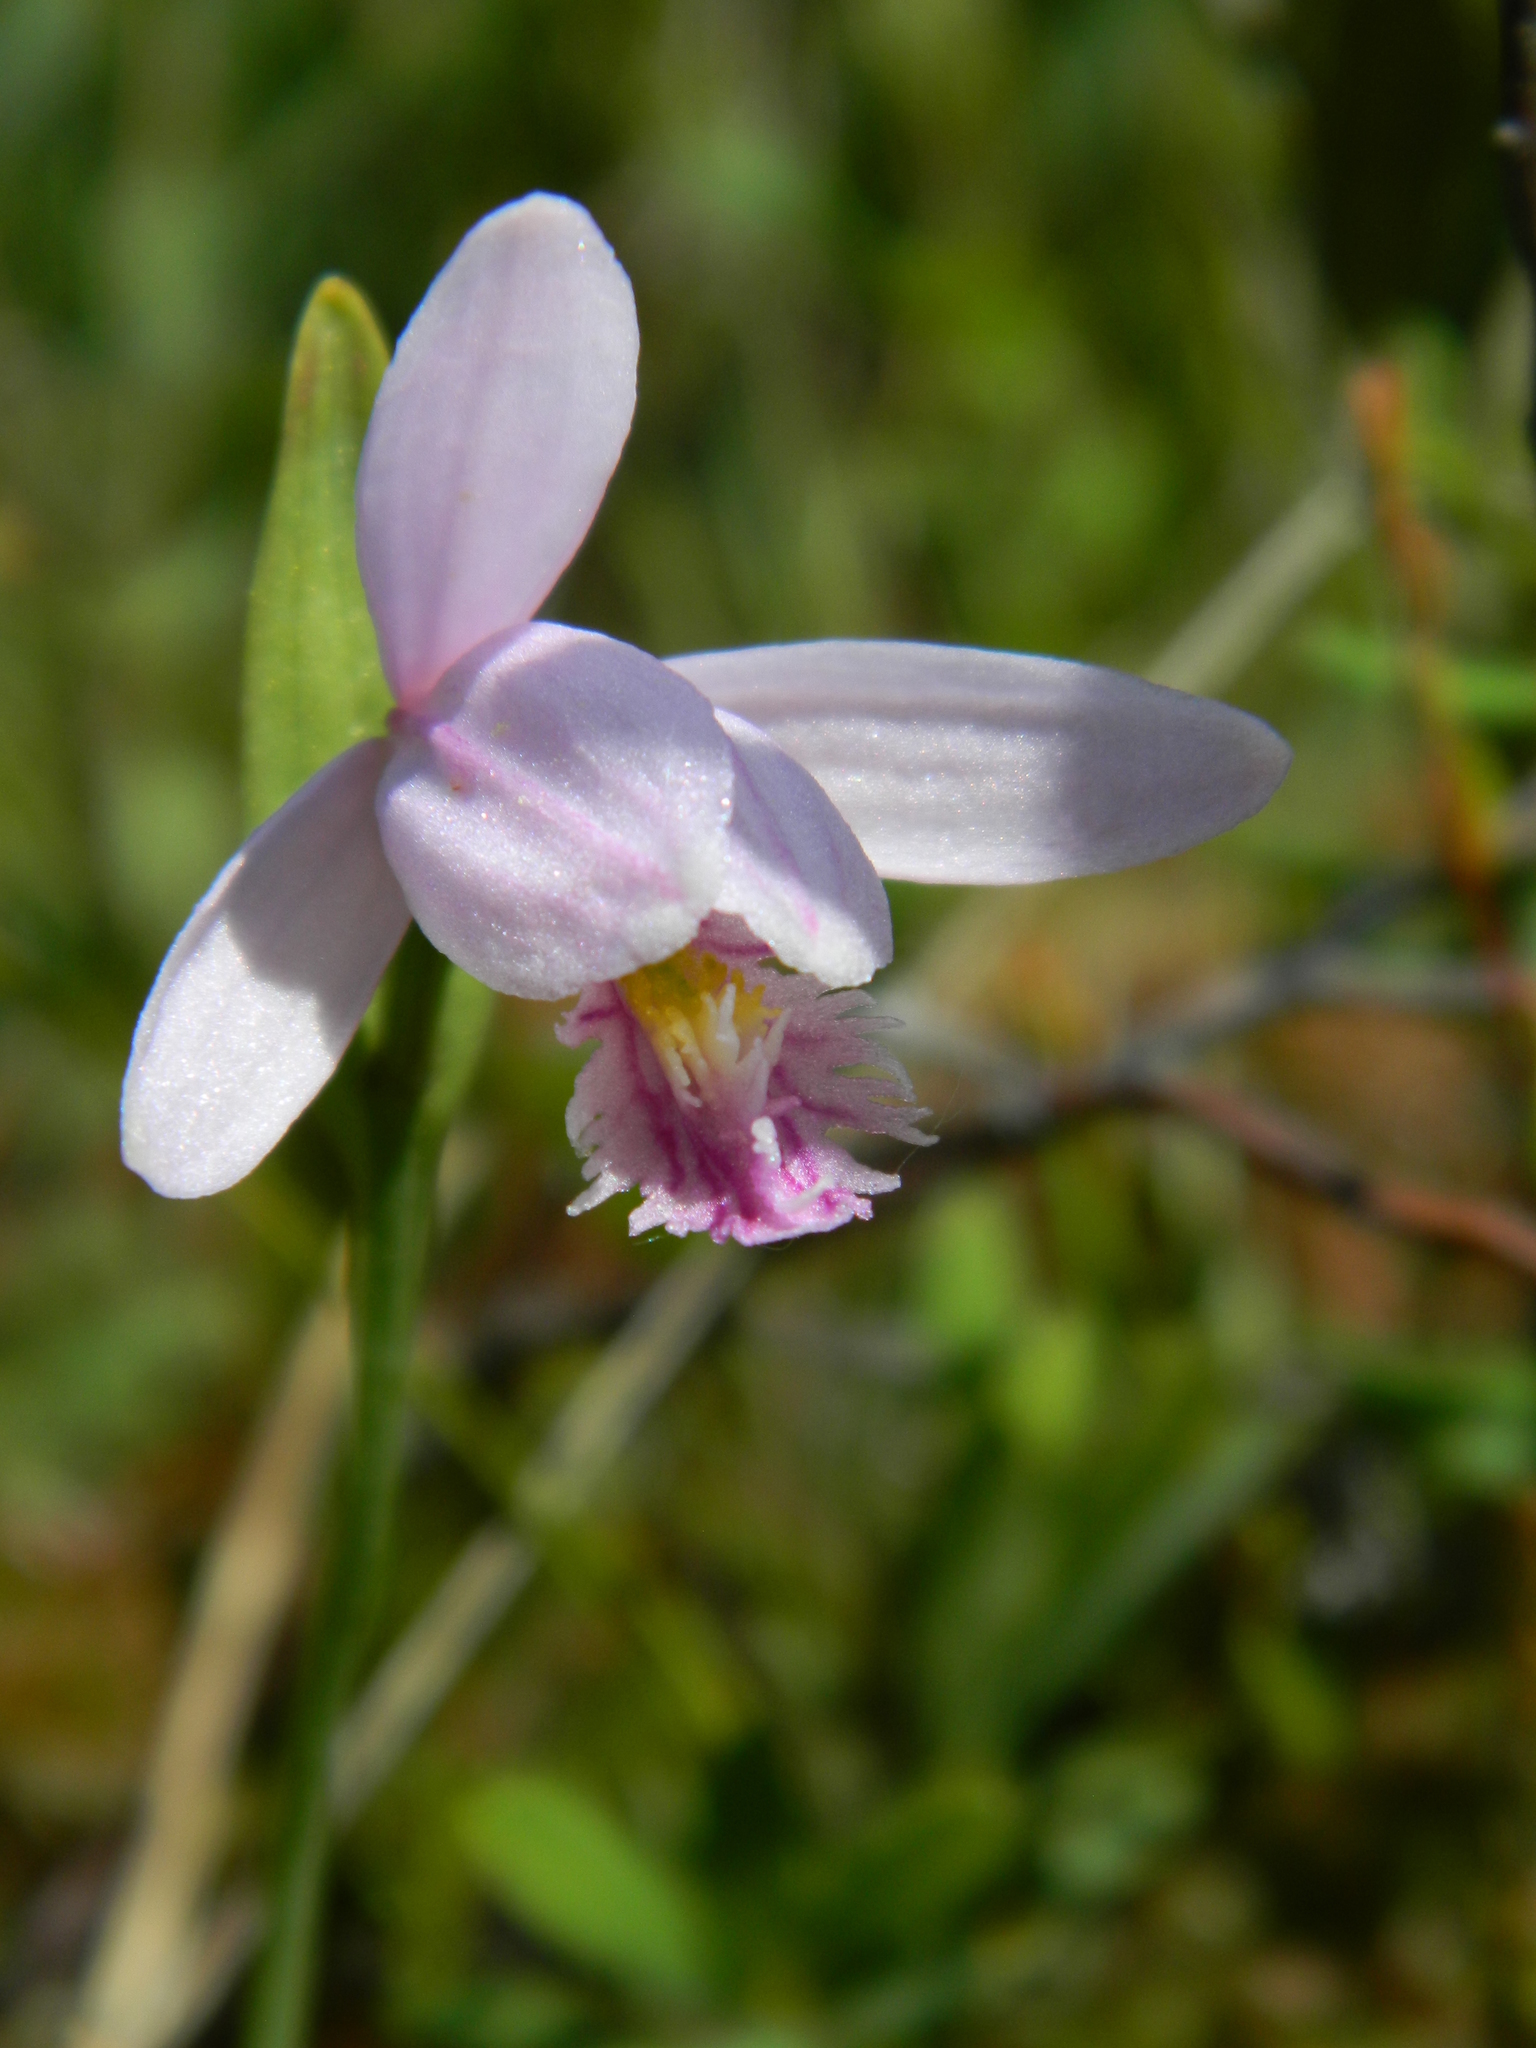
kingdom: Plantae
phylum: Tracheophyta
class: Liliopsida
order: Asparagales
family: Orchidaceae
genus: Pogonia
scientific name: Pogonia ophioglossoides
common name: Rose pogonia
